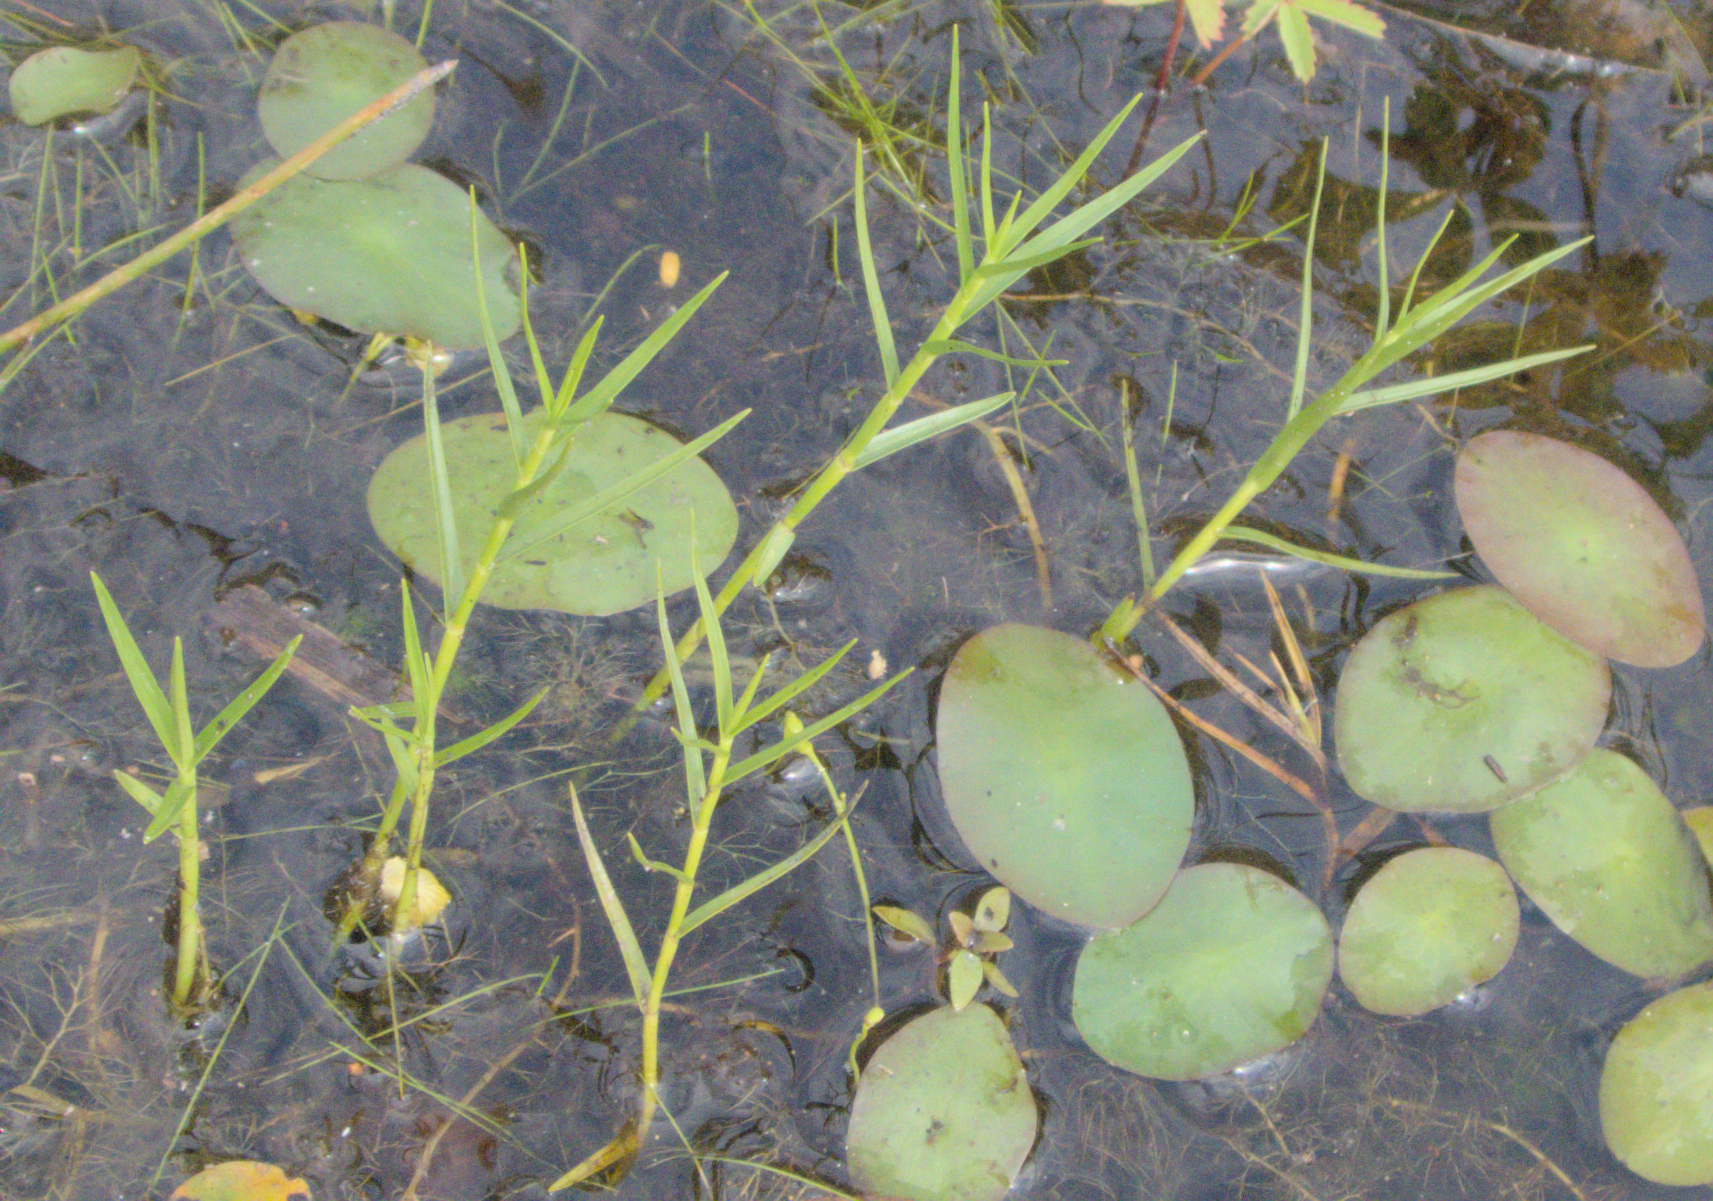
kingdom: Plantae
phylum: Tracheophyta
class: Liliopsida
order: Poales
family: Cyperaceae
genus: Dulichium
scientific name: Dulichium arundinaceum
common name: Three-way sedge
